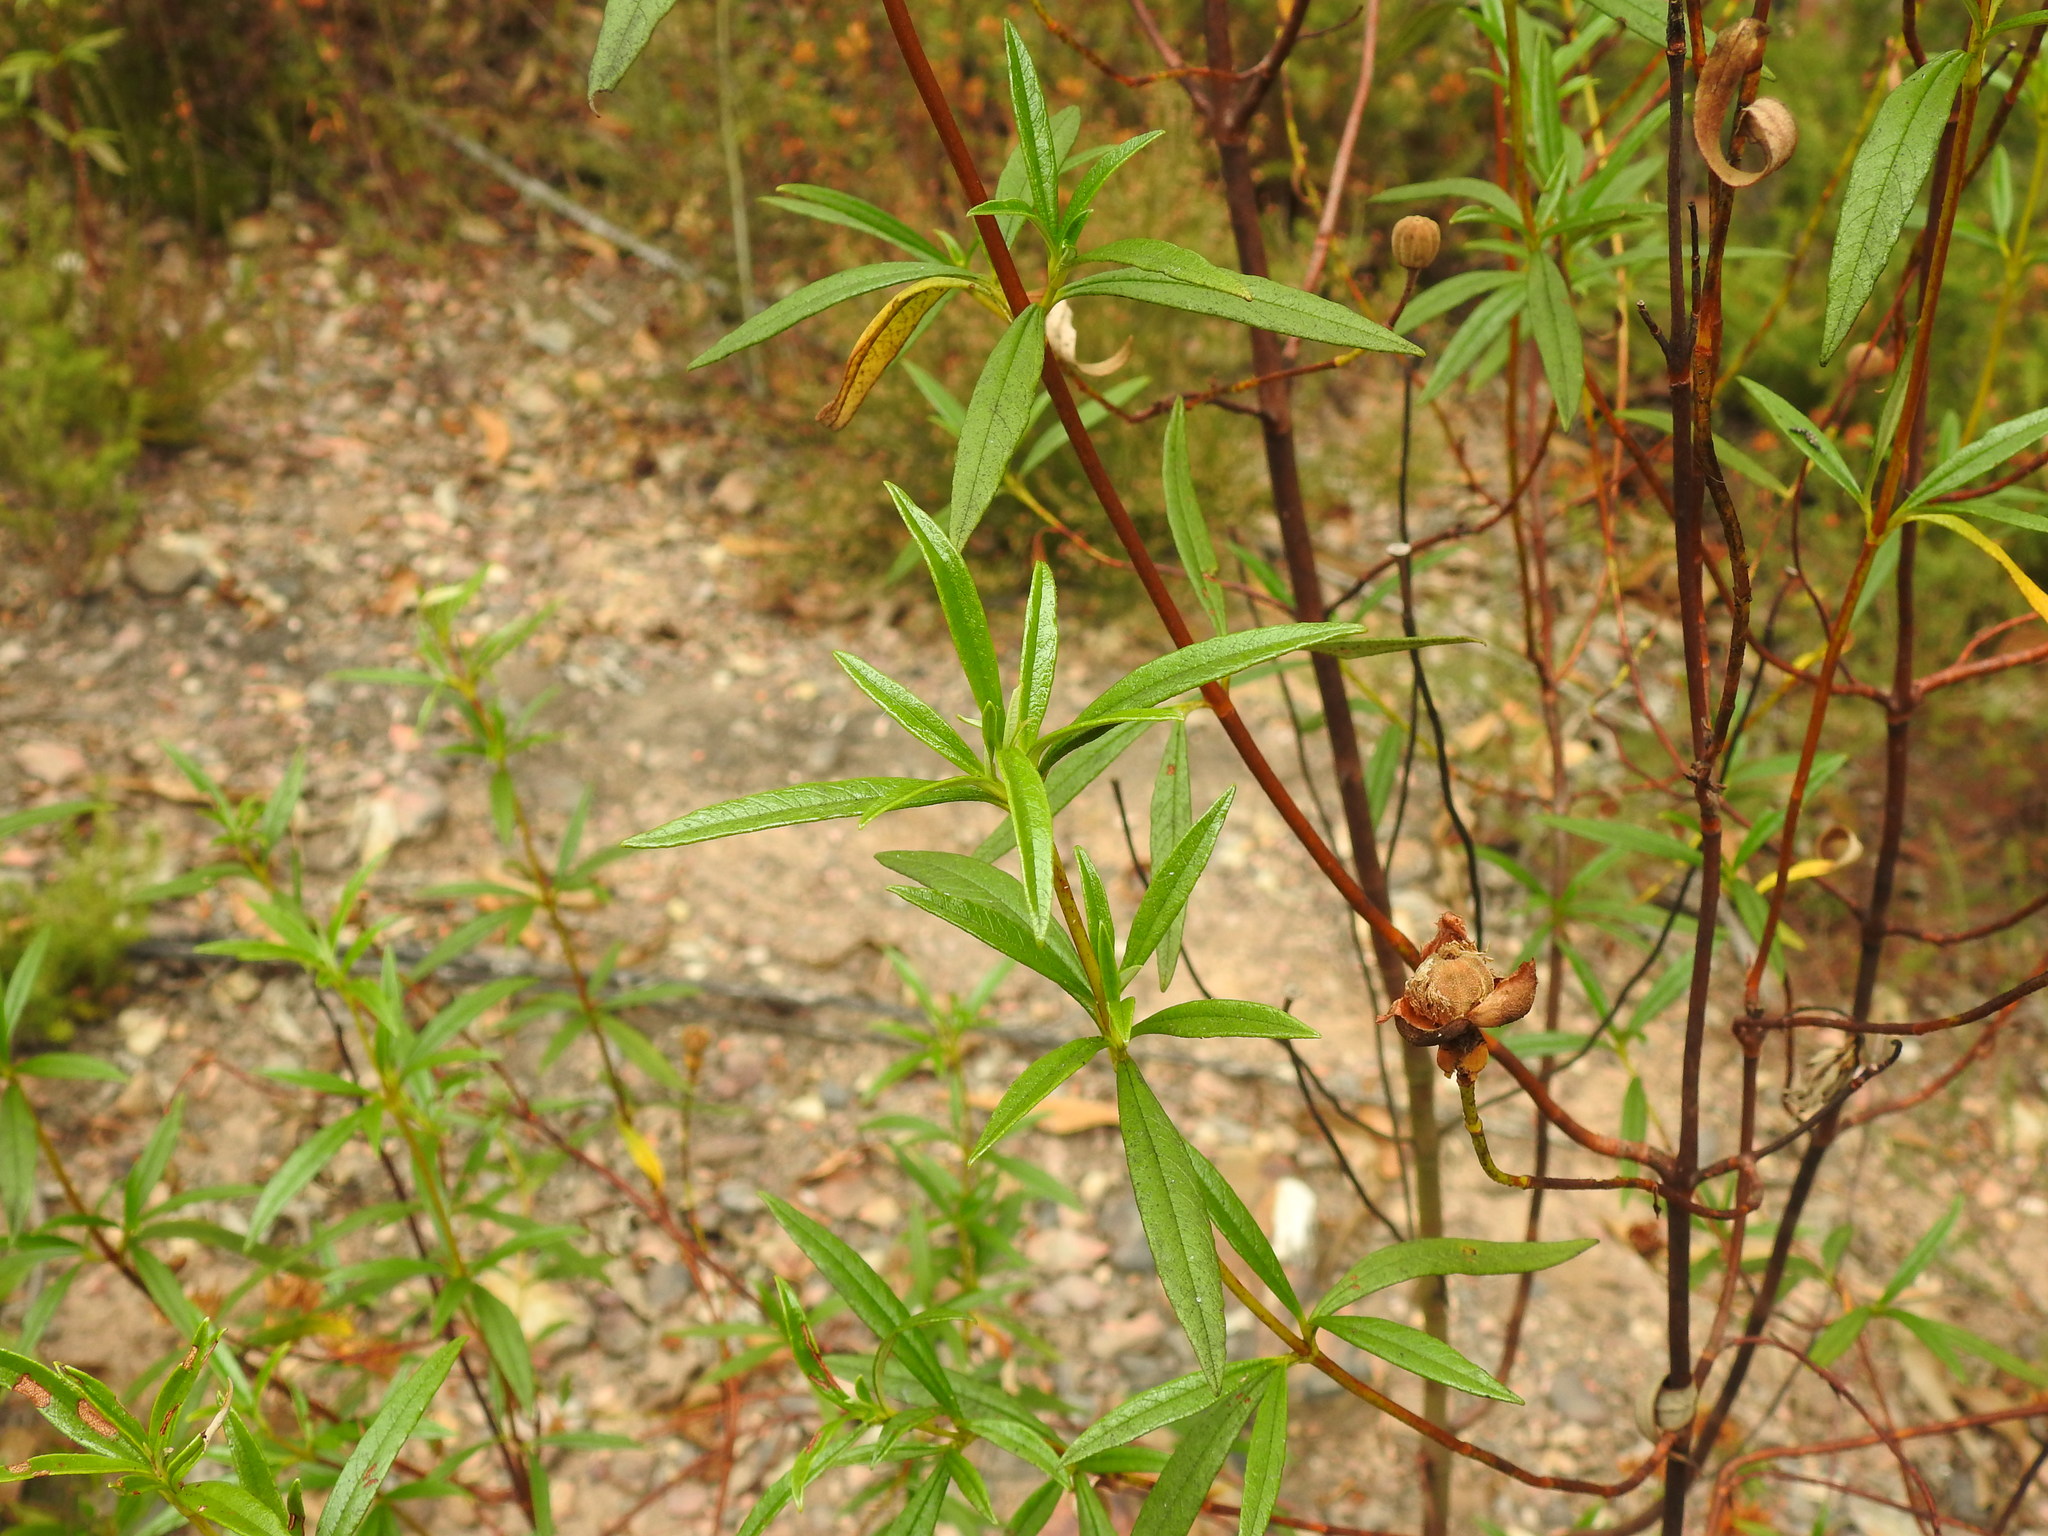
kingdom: Plantae
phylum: Tracheophyta
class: Magnoliopsida
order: Malvales
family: Cistaceae
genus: Cistus
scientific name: Cistus ladanifer
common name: Common gum cistus
